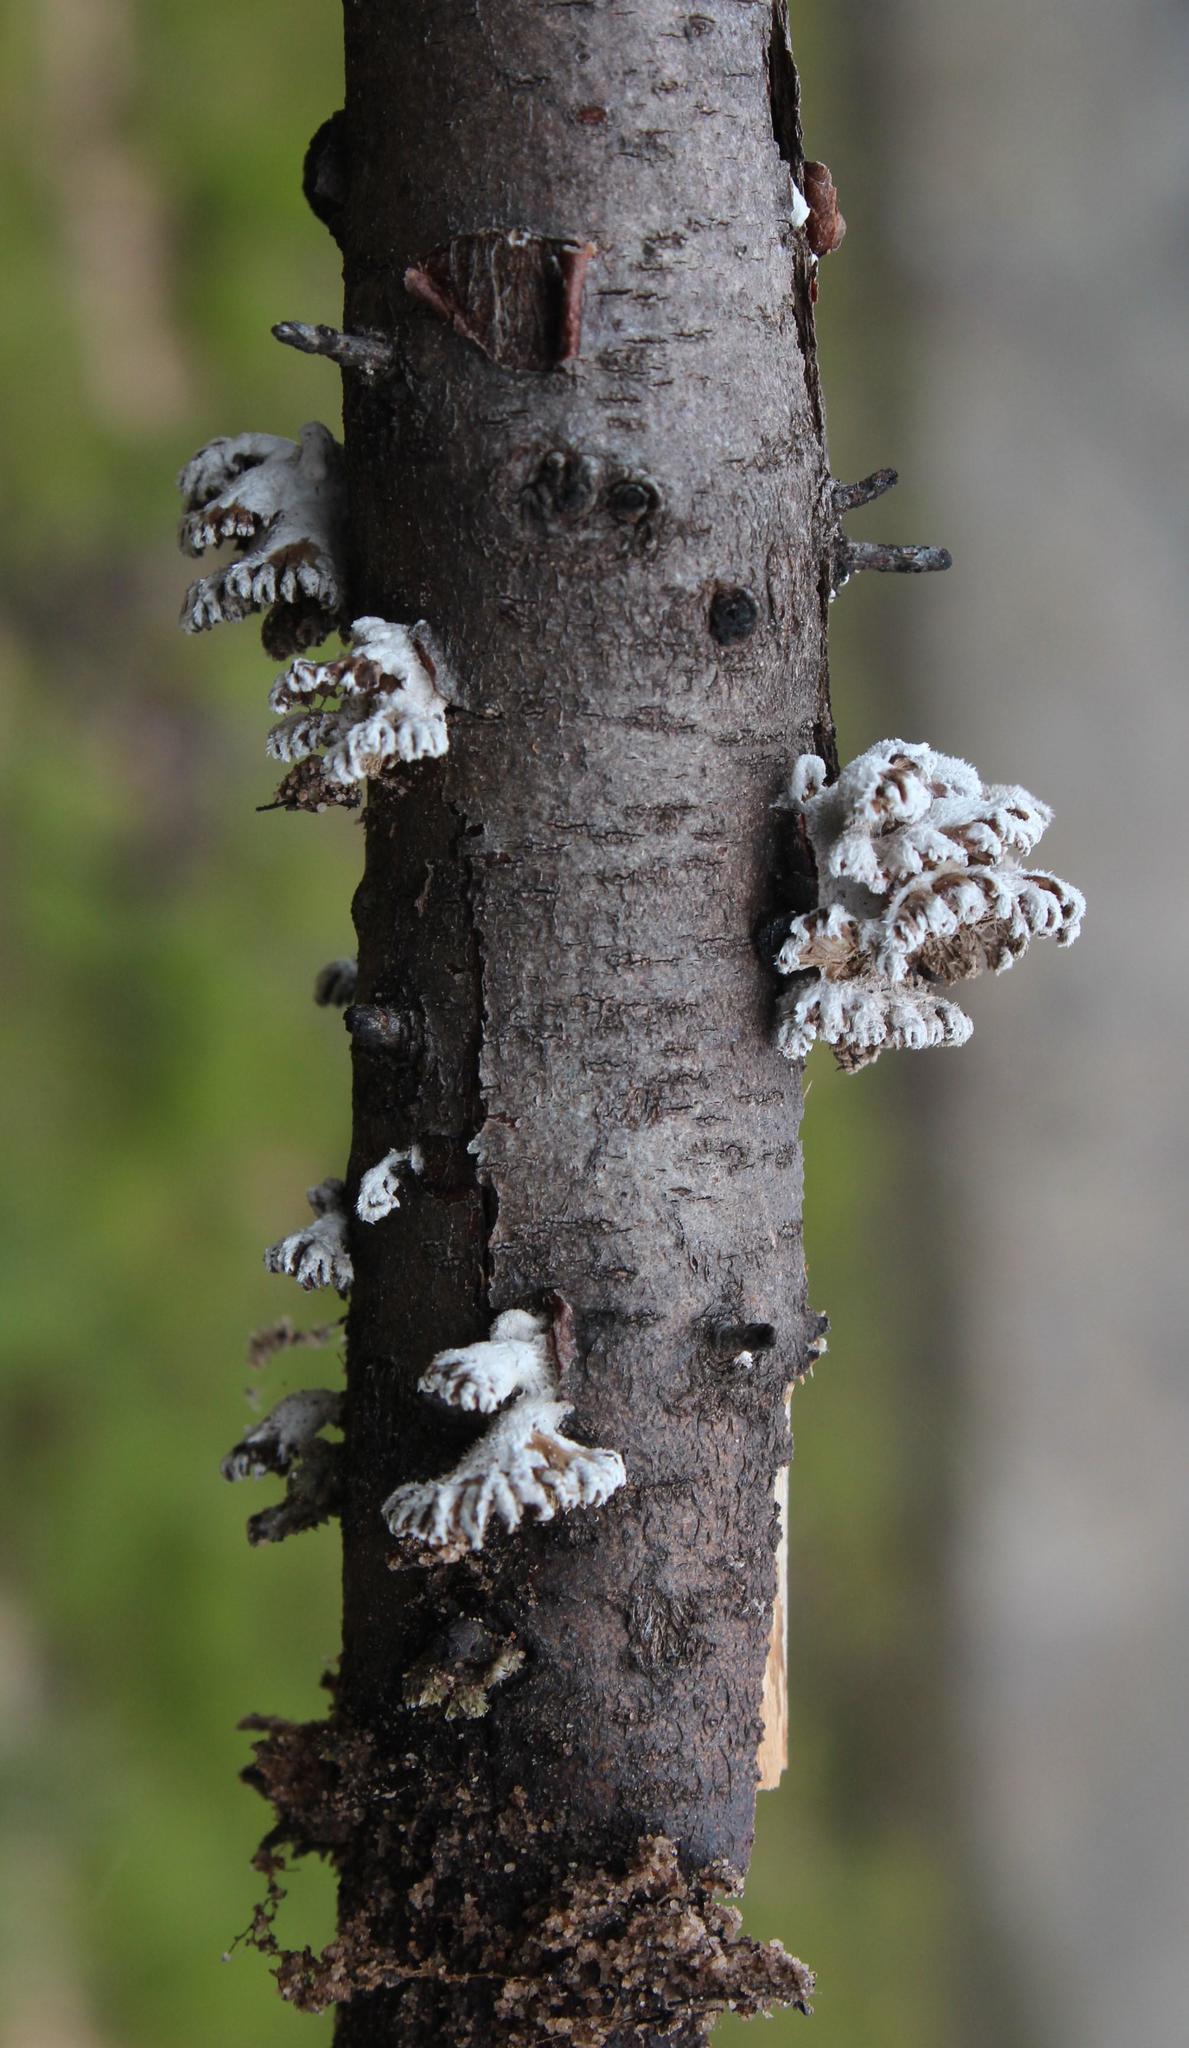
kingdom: Fungi
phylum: Basidiomycota
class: Agaricomycetes
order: Agaricales
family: Schizophyllaceae
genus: Schizophyllum
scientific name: Schizophyllum commune
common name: Common porecrust
